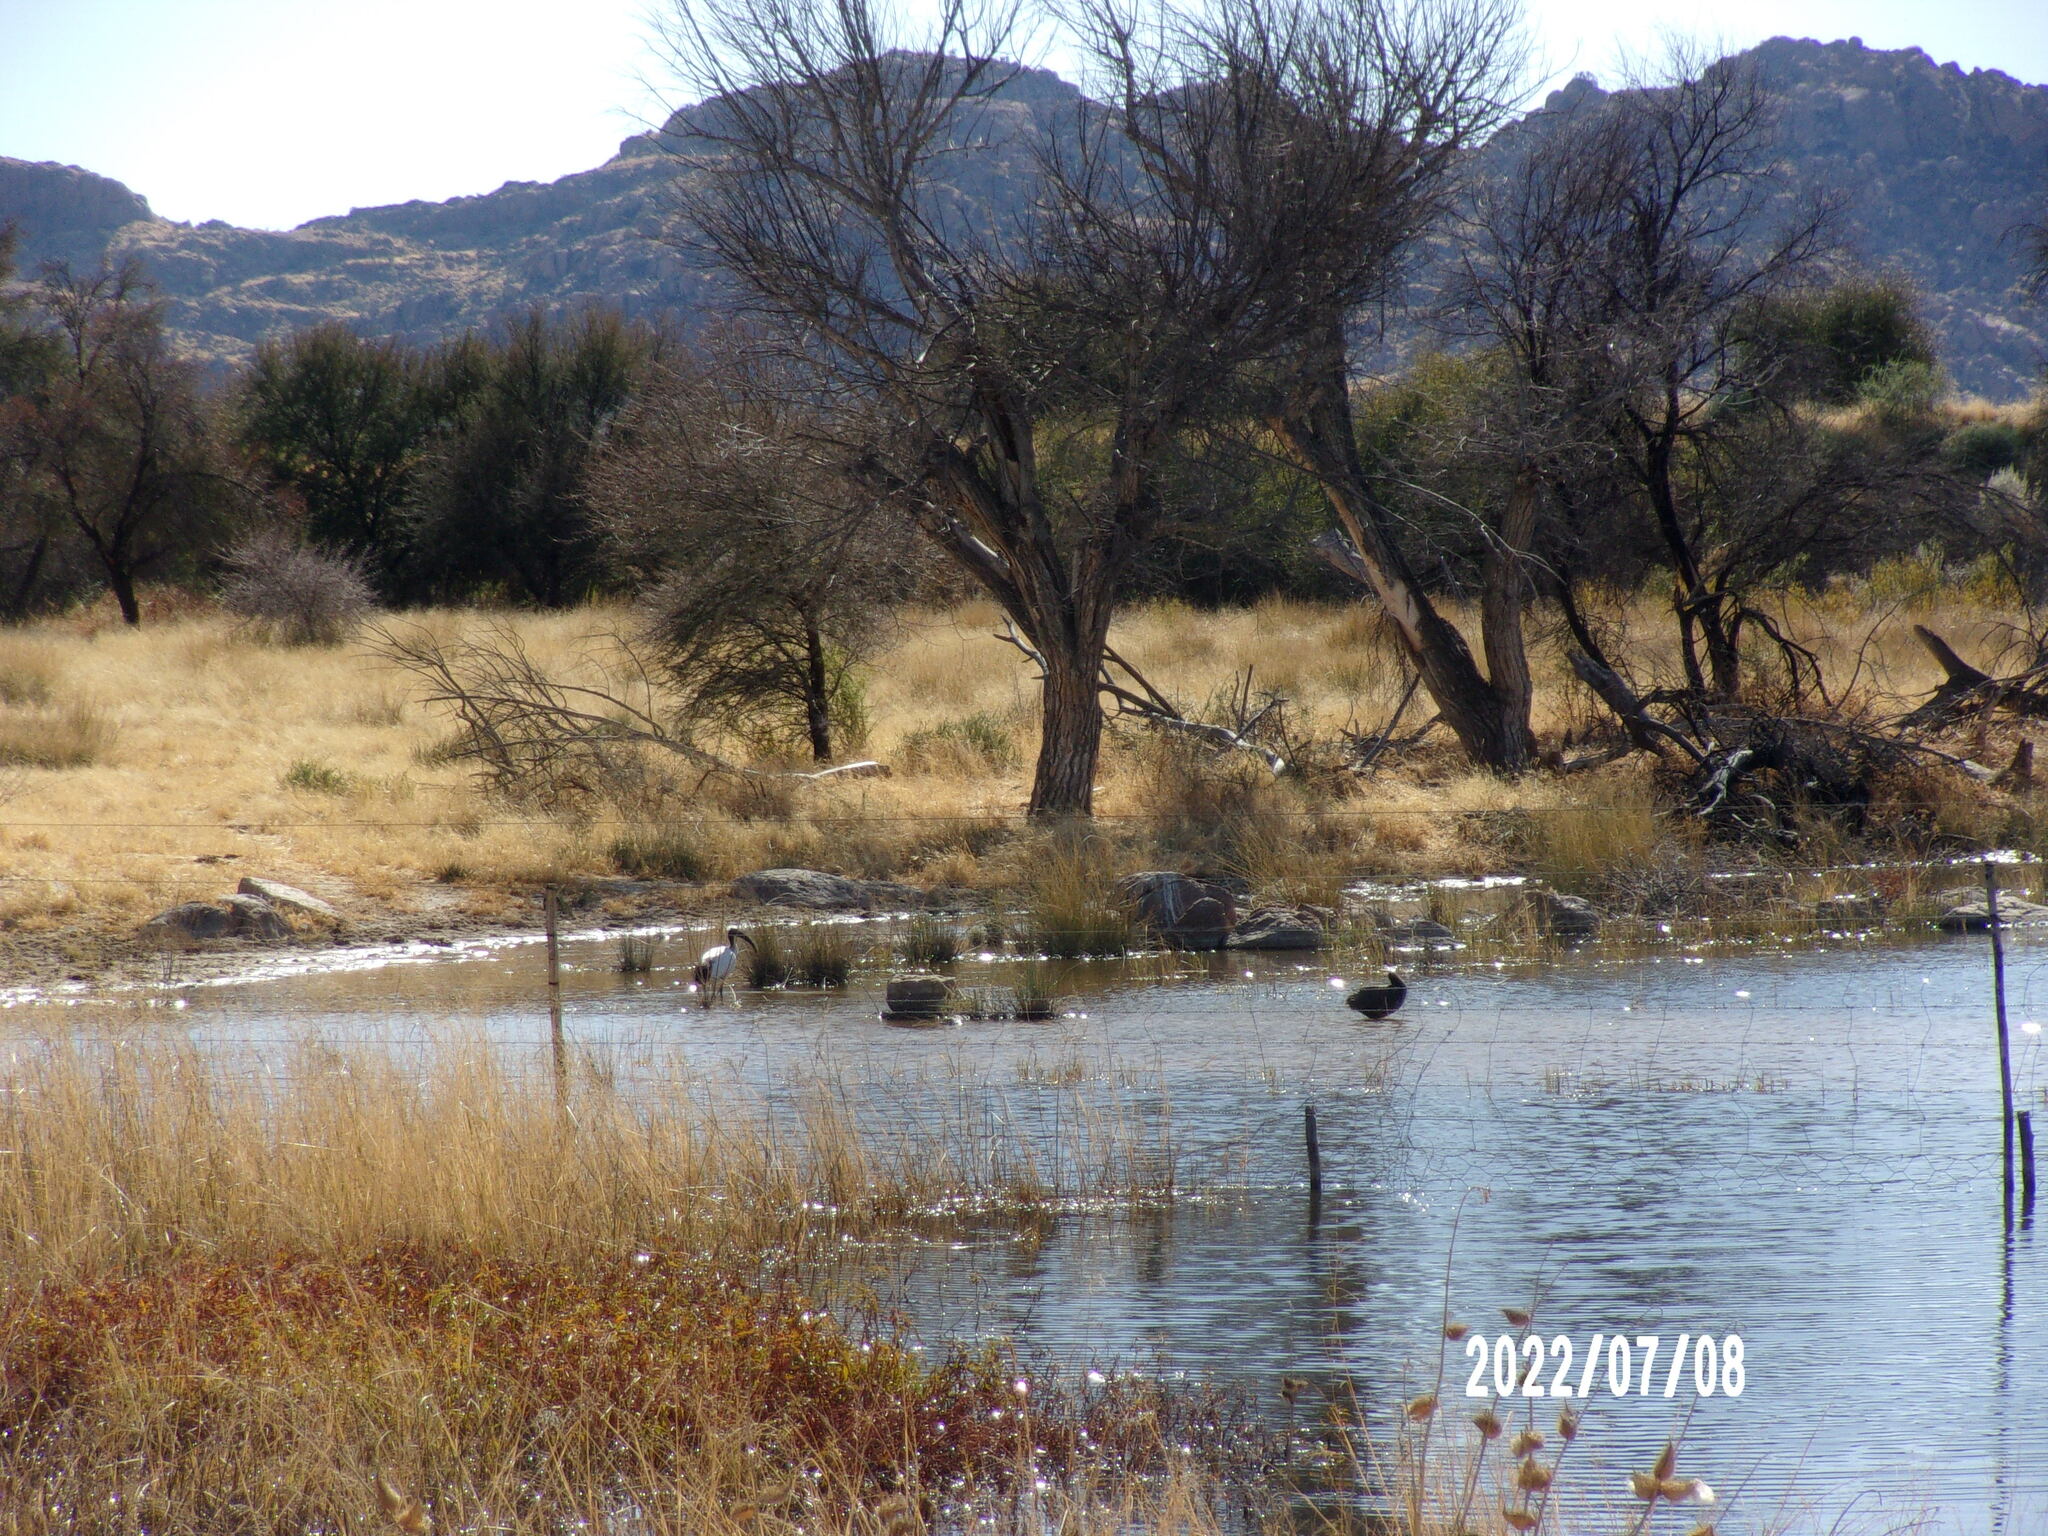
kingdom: Animalia
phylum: Chordata
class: Aves
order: Pelecaniformes
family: Threskiornithidae
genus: Threskiornis
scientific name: Threskiornis aethiopicus
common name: Sacred ibis
